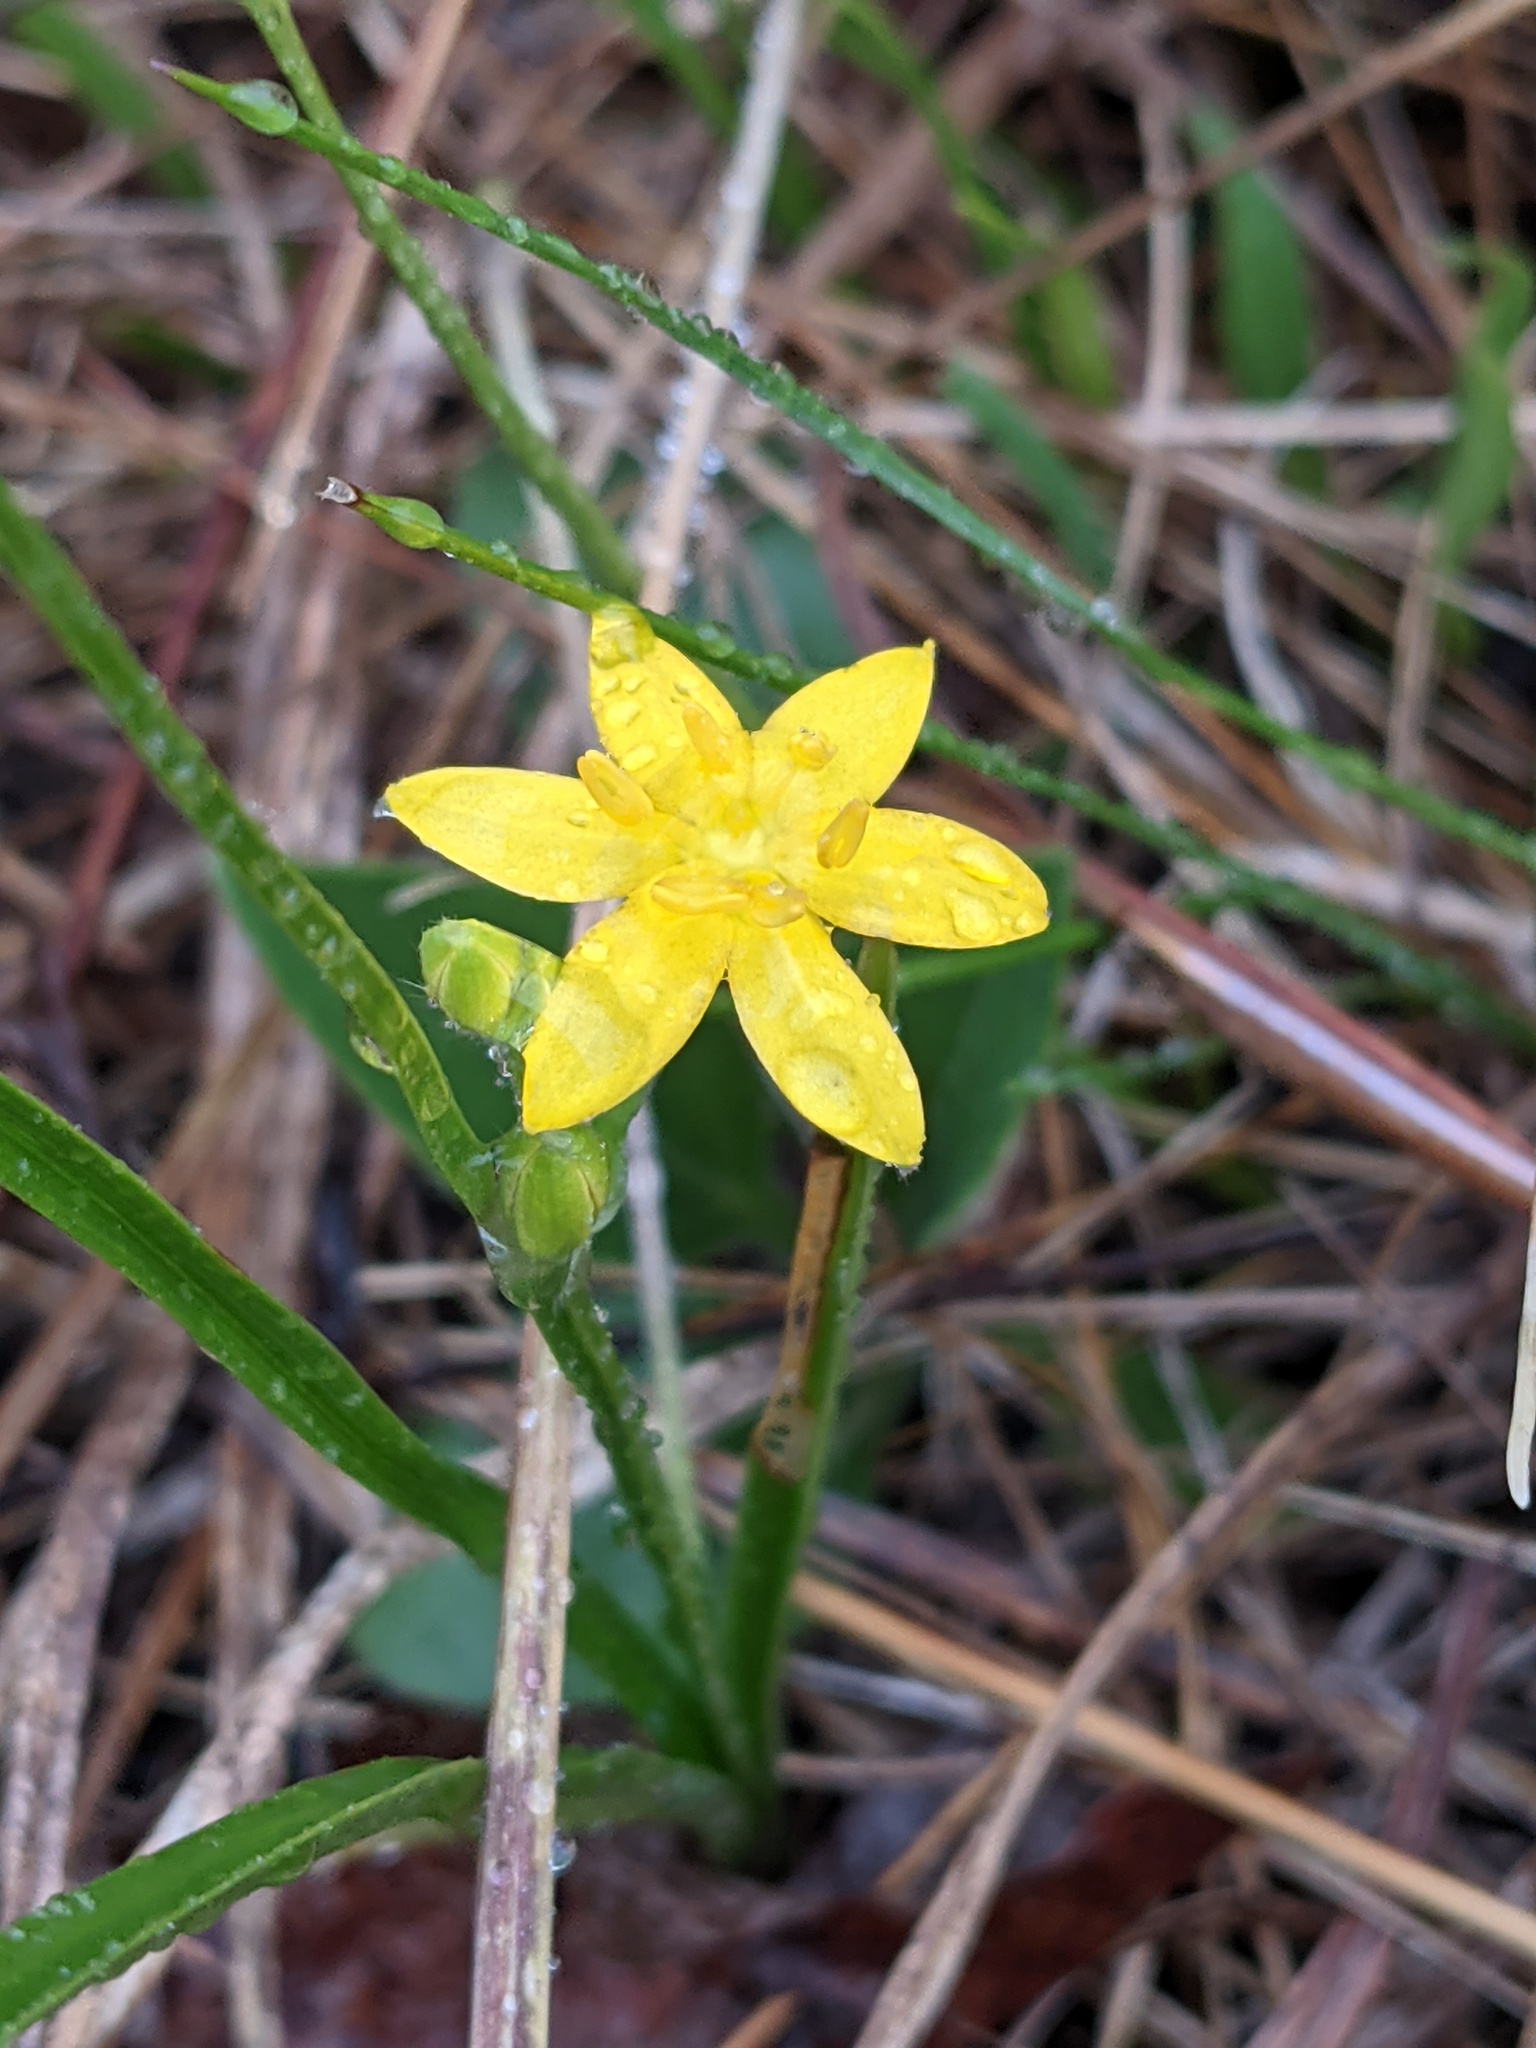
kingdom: Plantae
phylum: Tracheophyta
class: Liliopsida
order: Asparagales
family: Hypoxidaceae
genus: Hypoxis
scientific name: Hypoxis hirsuta
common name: Common goldstar
